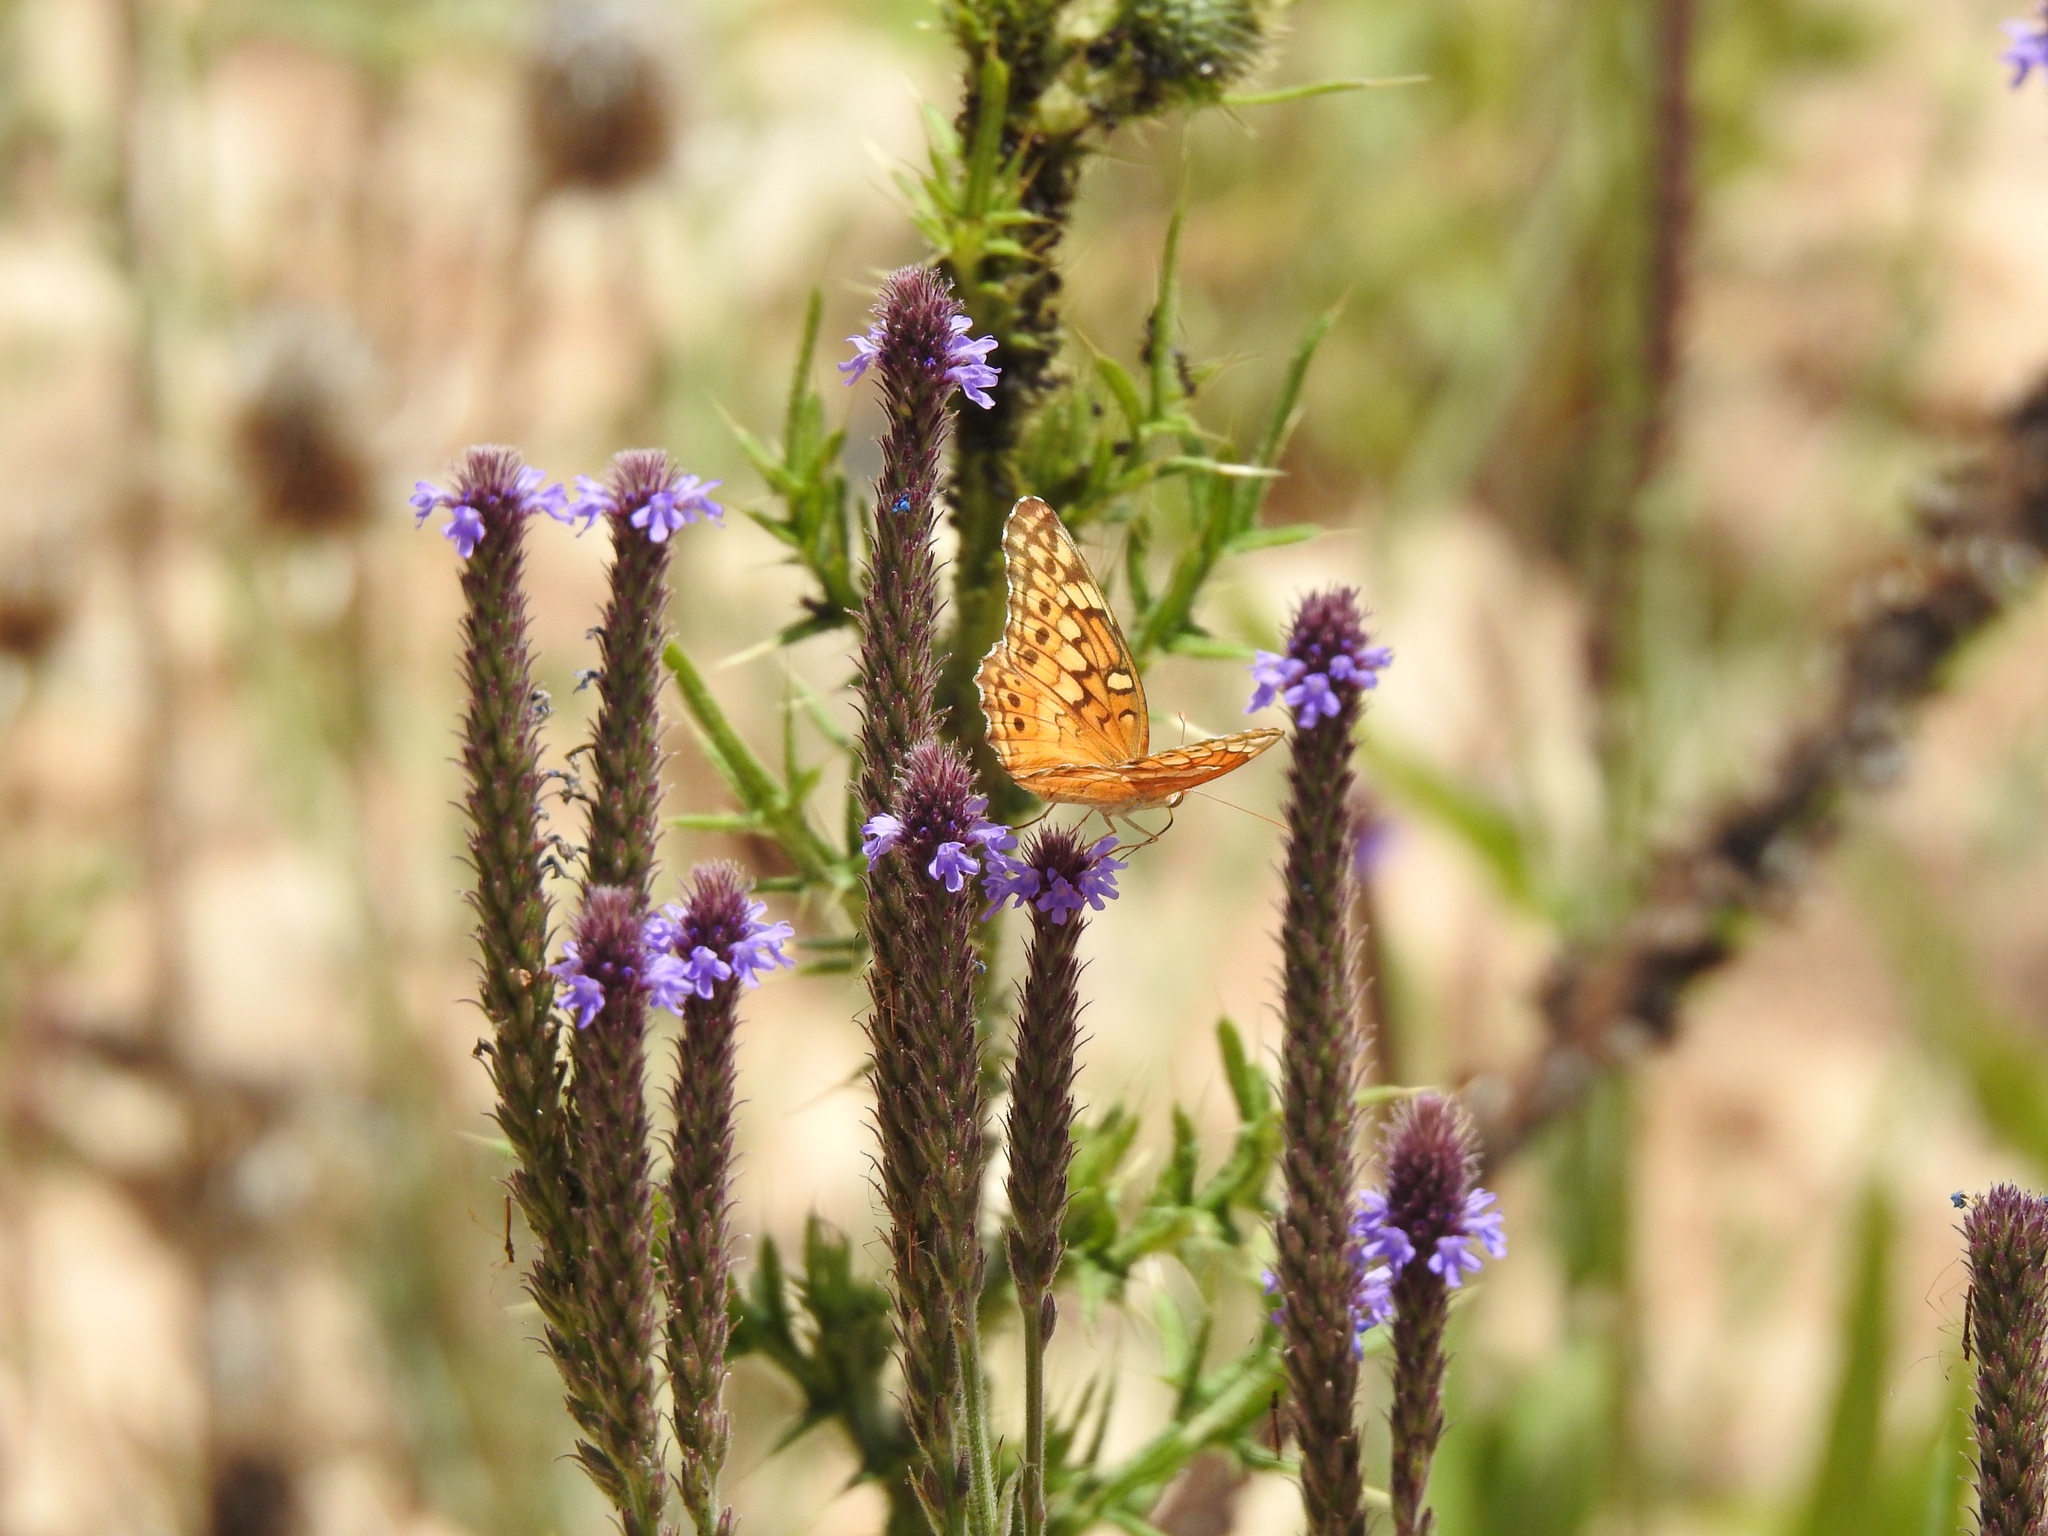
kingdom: Animalia
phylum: Arthropoda
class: Insecta
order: Lepidoptera
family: Nymphalidae
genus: Euptoieta
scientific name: Euptoieta claudia
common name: Variegated fritillary
